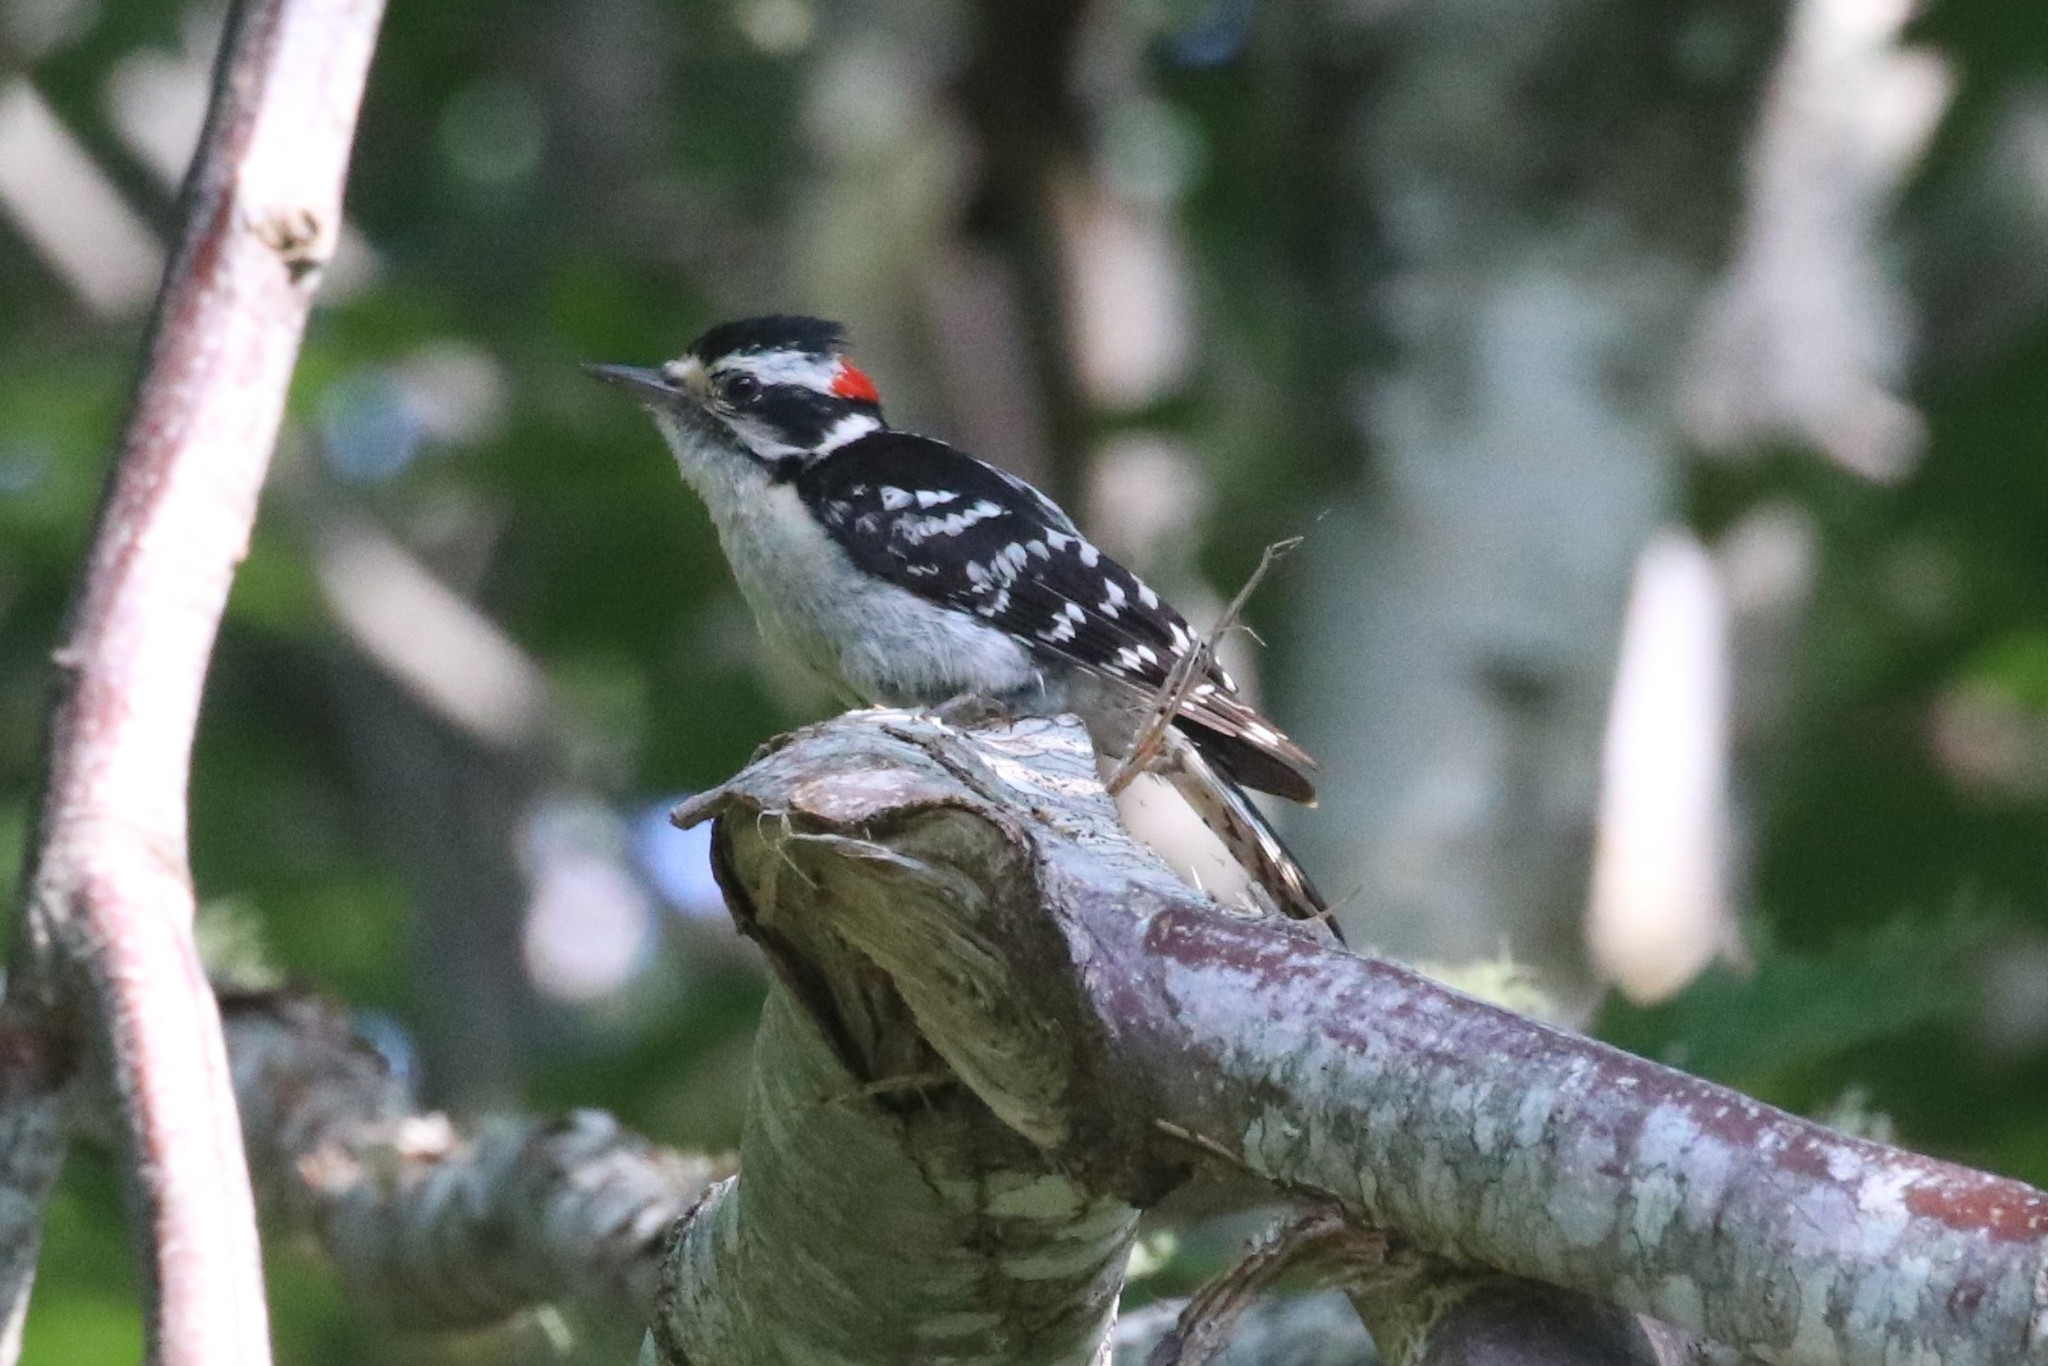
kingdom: Animalia
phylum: Chordata
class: Aves
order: Piciformes
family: Picidae
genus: Dryobates
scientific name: Dryobates pubescens
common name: Downy woodpecker
